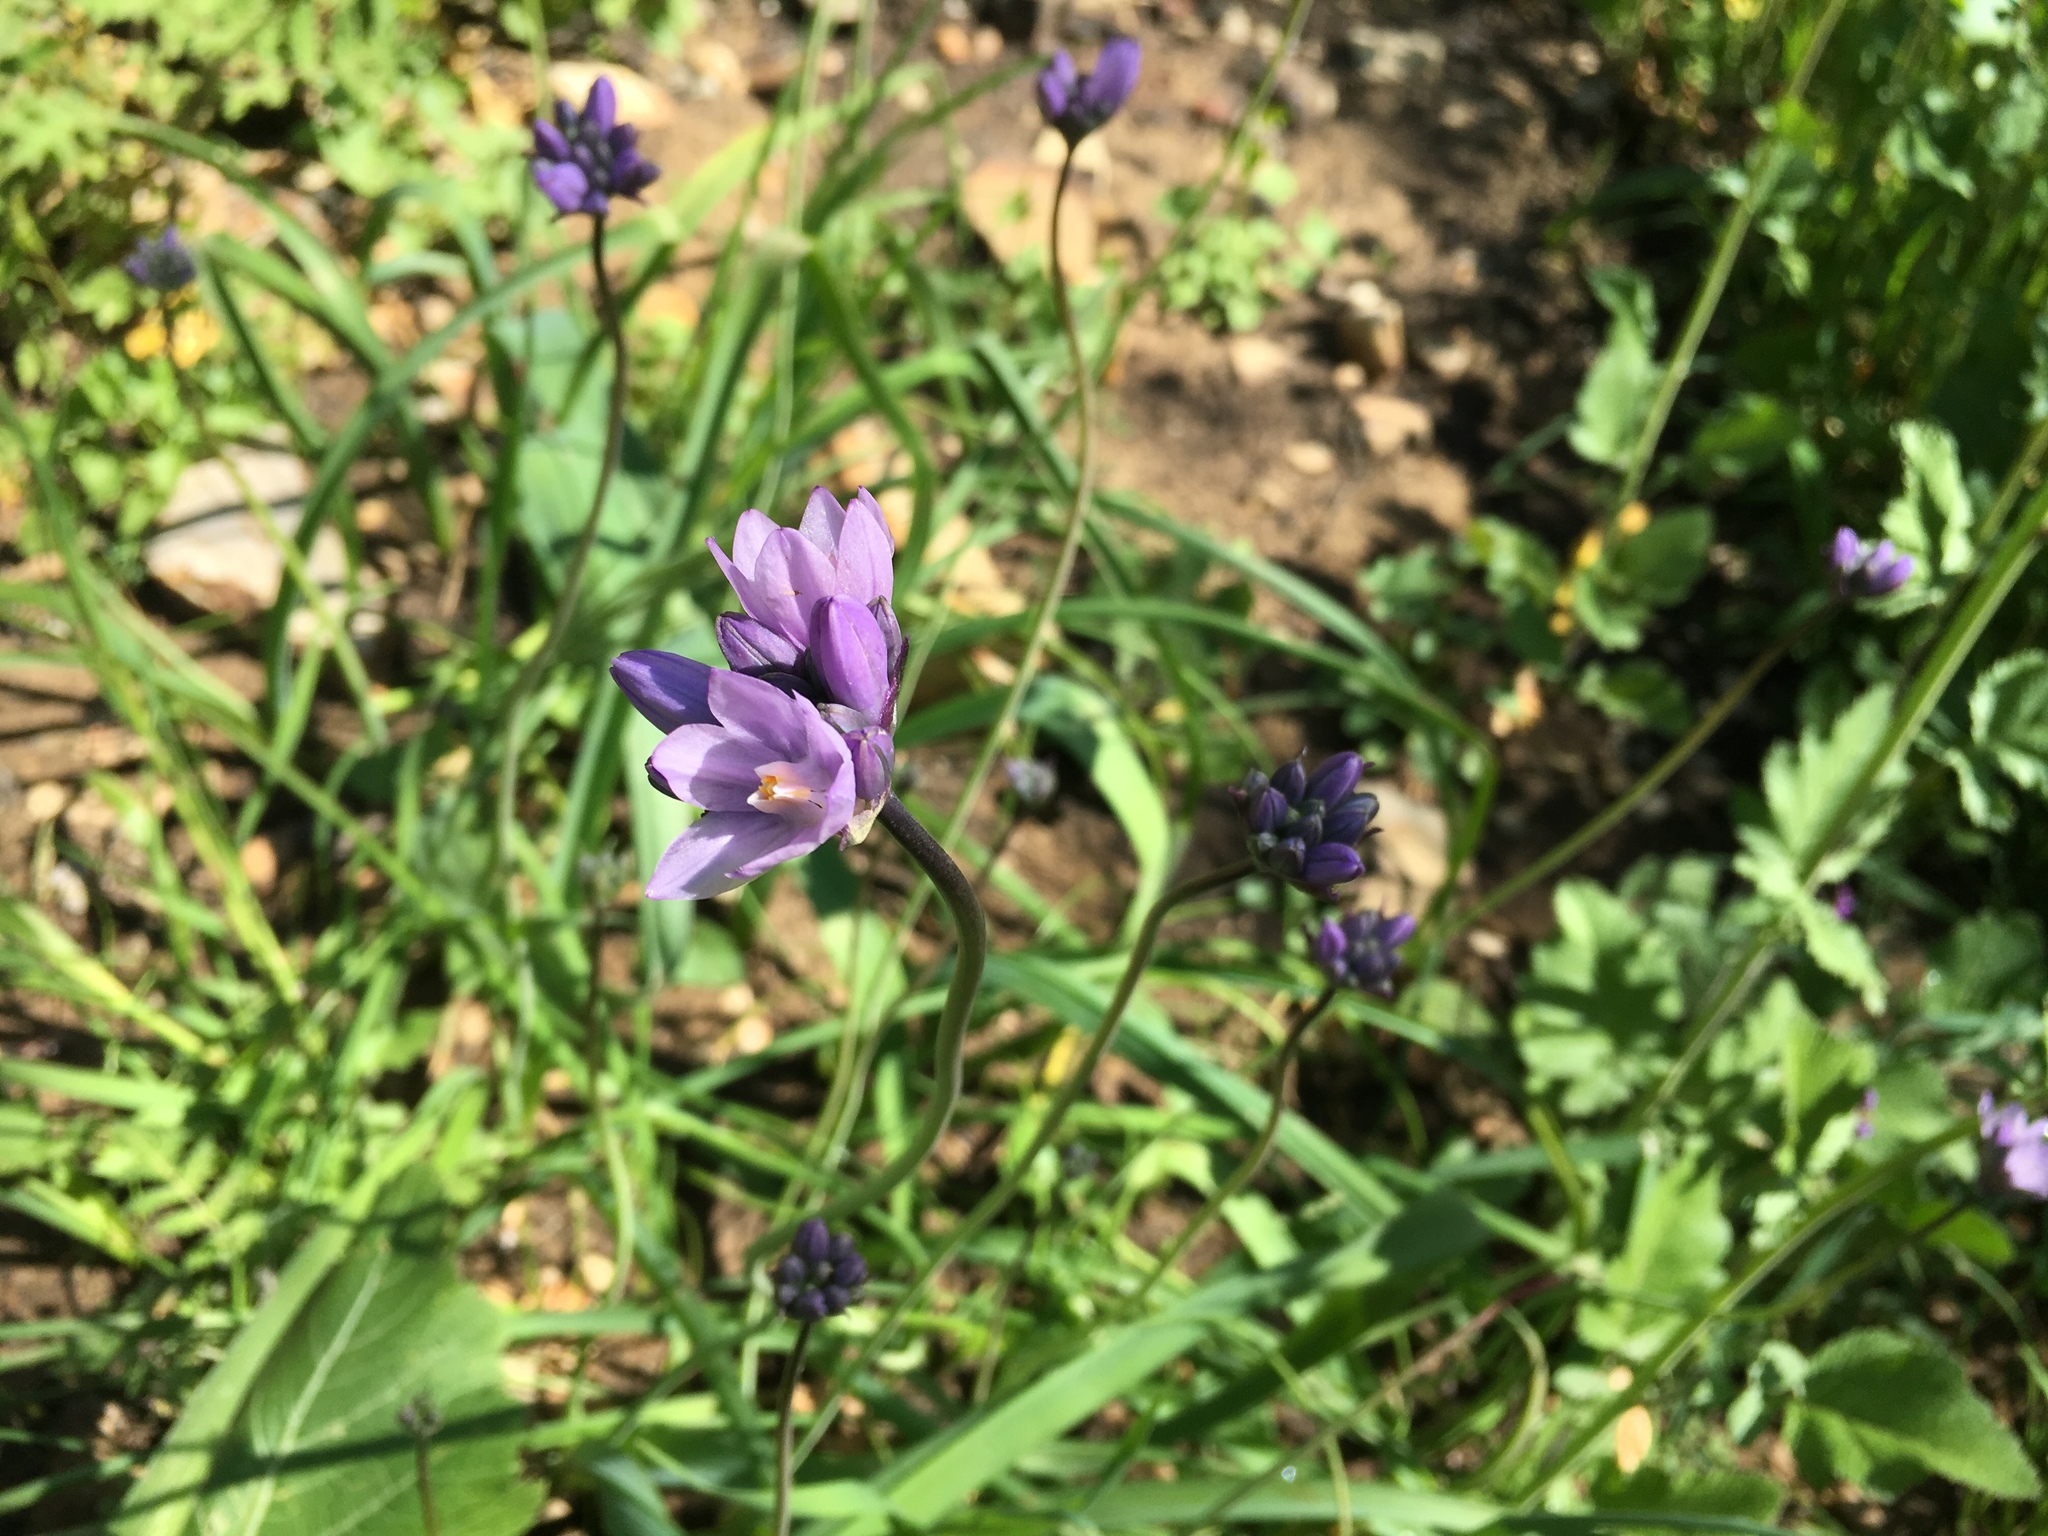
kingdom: Plantae
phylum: Tracheophyta
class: Liliopsida
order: Asparagales
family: Asparagaceae
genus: Dipterostemon
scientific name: Dipterostemon capitatus
